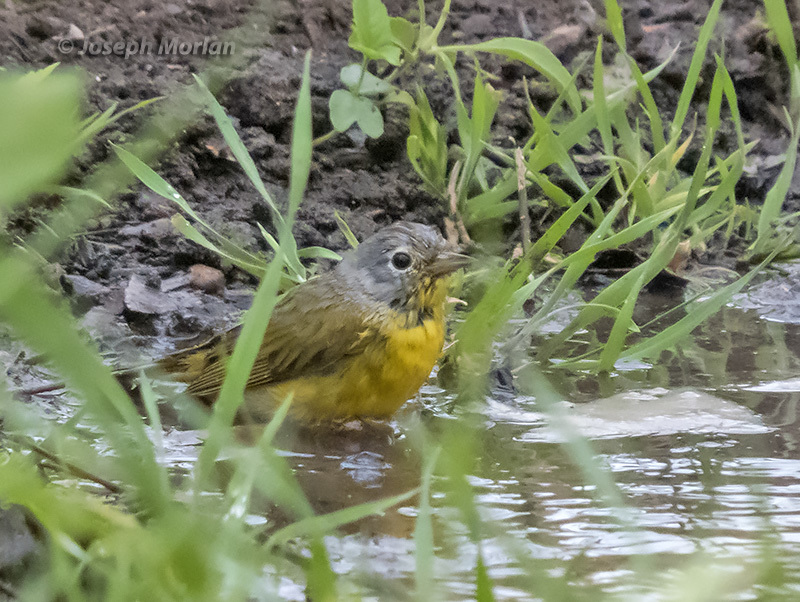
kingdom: Animalia
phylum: Chordata
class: Aves
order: Passeriformes
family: Parulidae
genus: Leiothlypis
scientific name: Leiothlypis ruficapilla
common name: Nashville warbler
